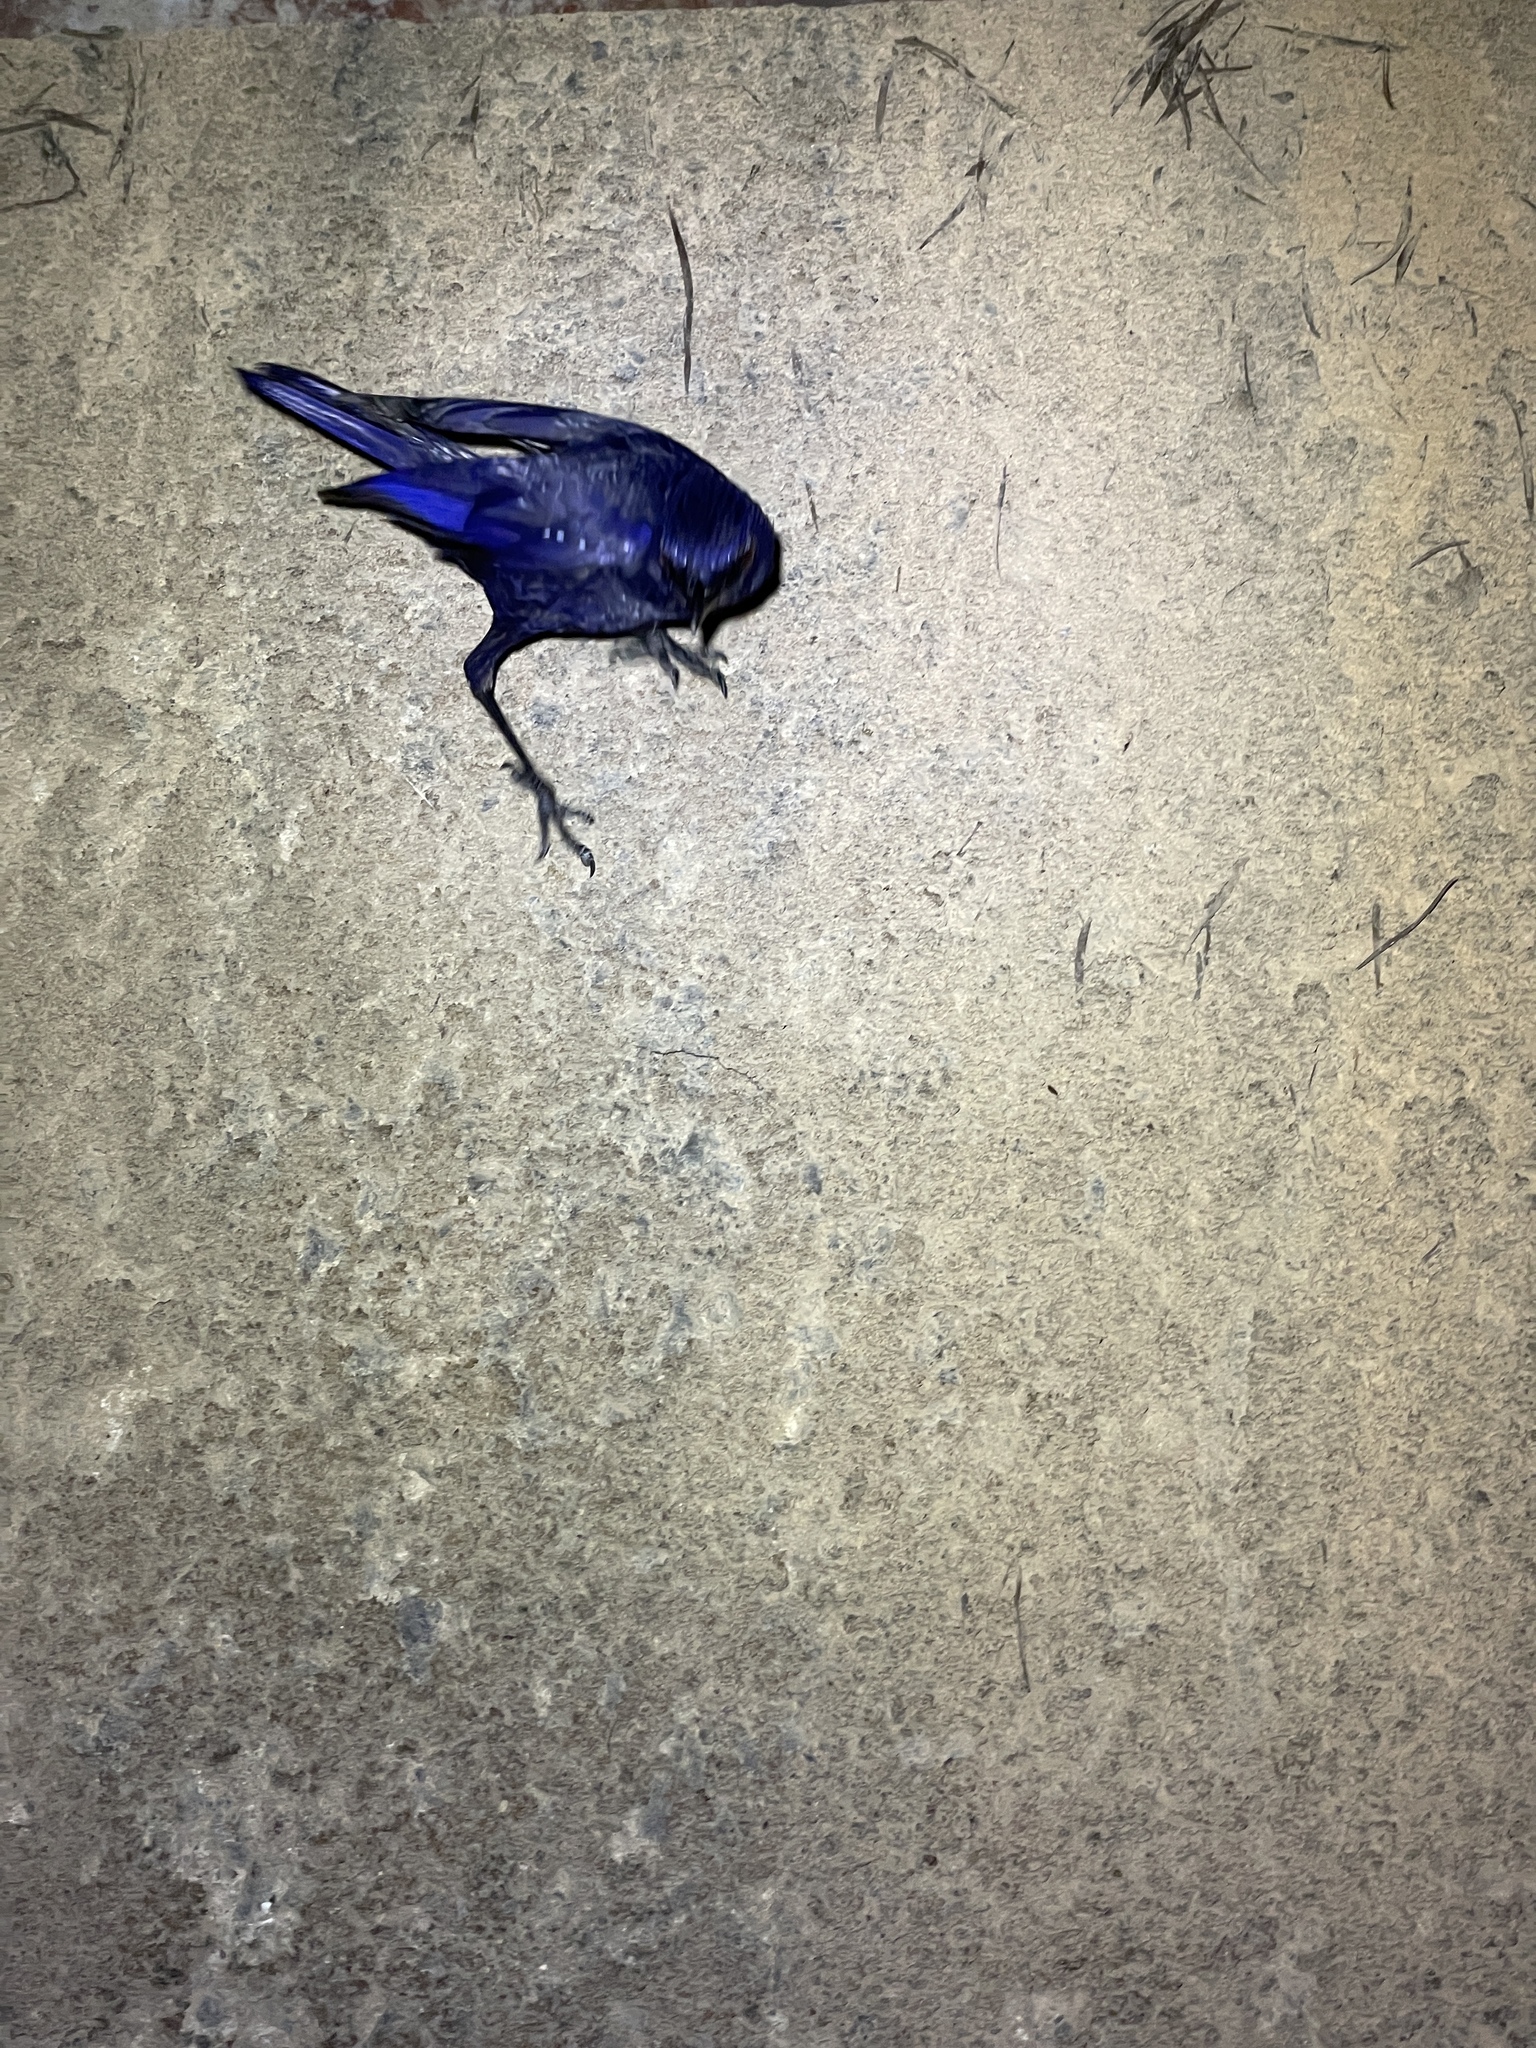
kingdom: Animalia
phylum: Chordata
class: Aves
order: Passeriformes
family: Muscicapidae
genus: Myophonus
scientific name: Myophonus caeruleus
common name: Blue whistling-thrush
